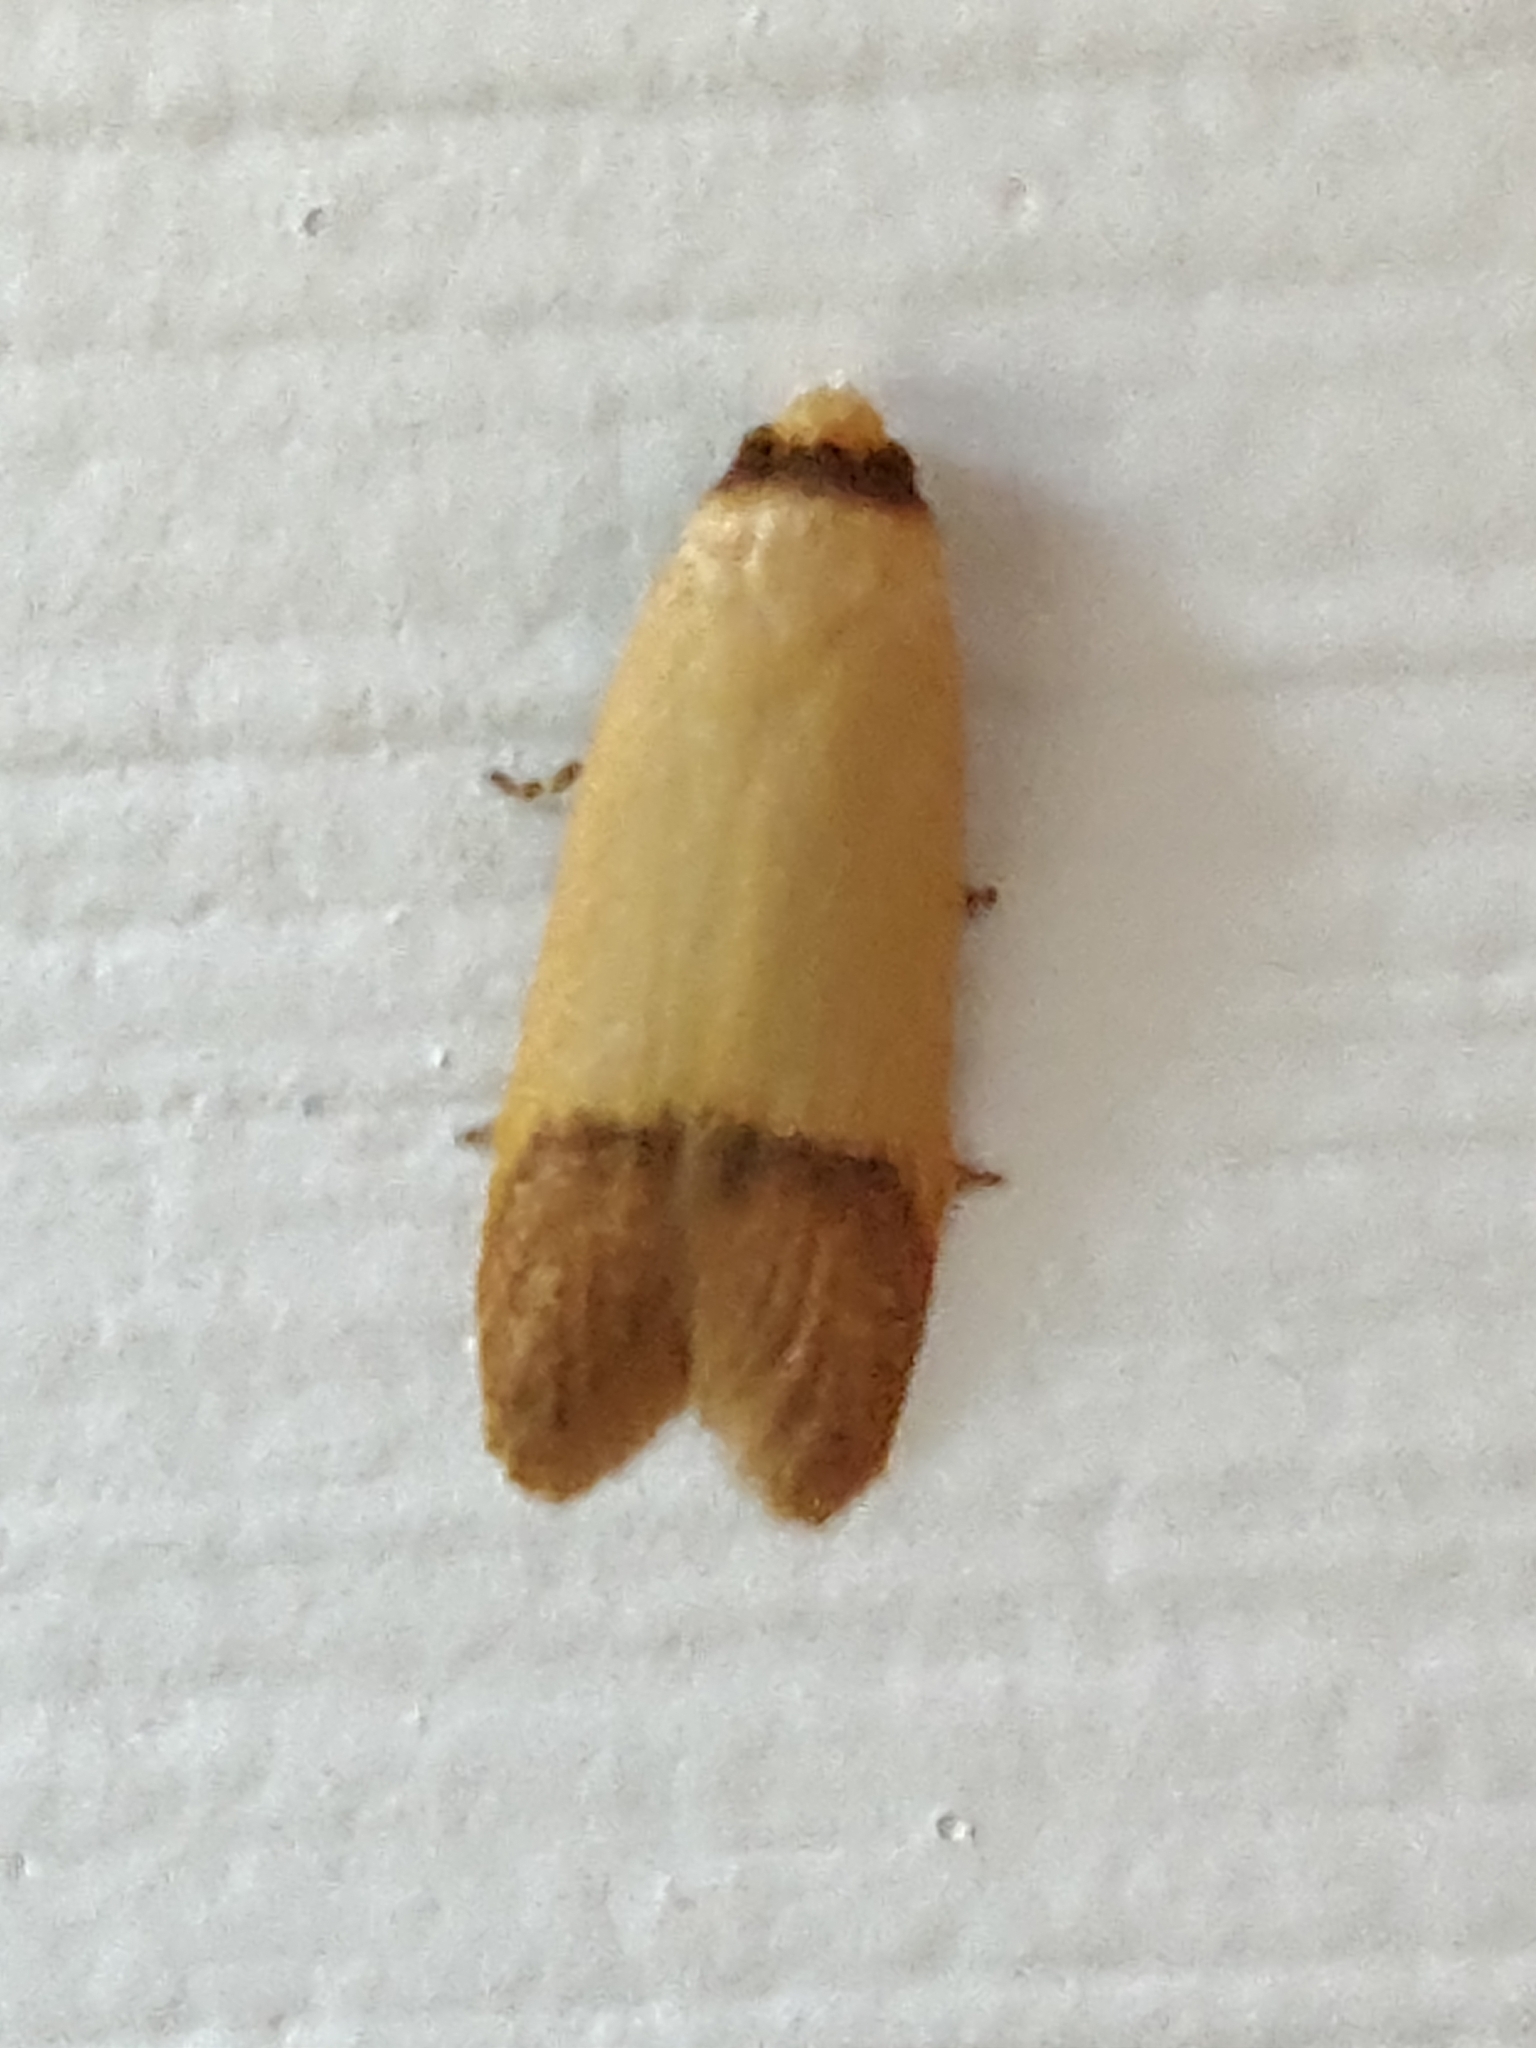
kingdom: Animalia
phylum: Arthropoda
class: Insecta
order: Lepidoptera
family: Oecophoridae
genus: Tachystola
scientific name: Tachystola stenoptera
